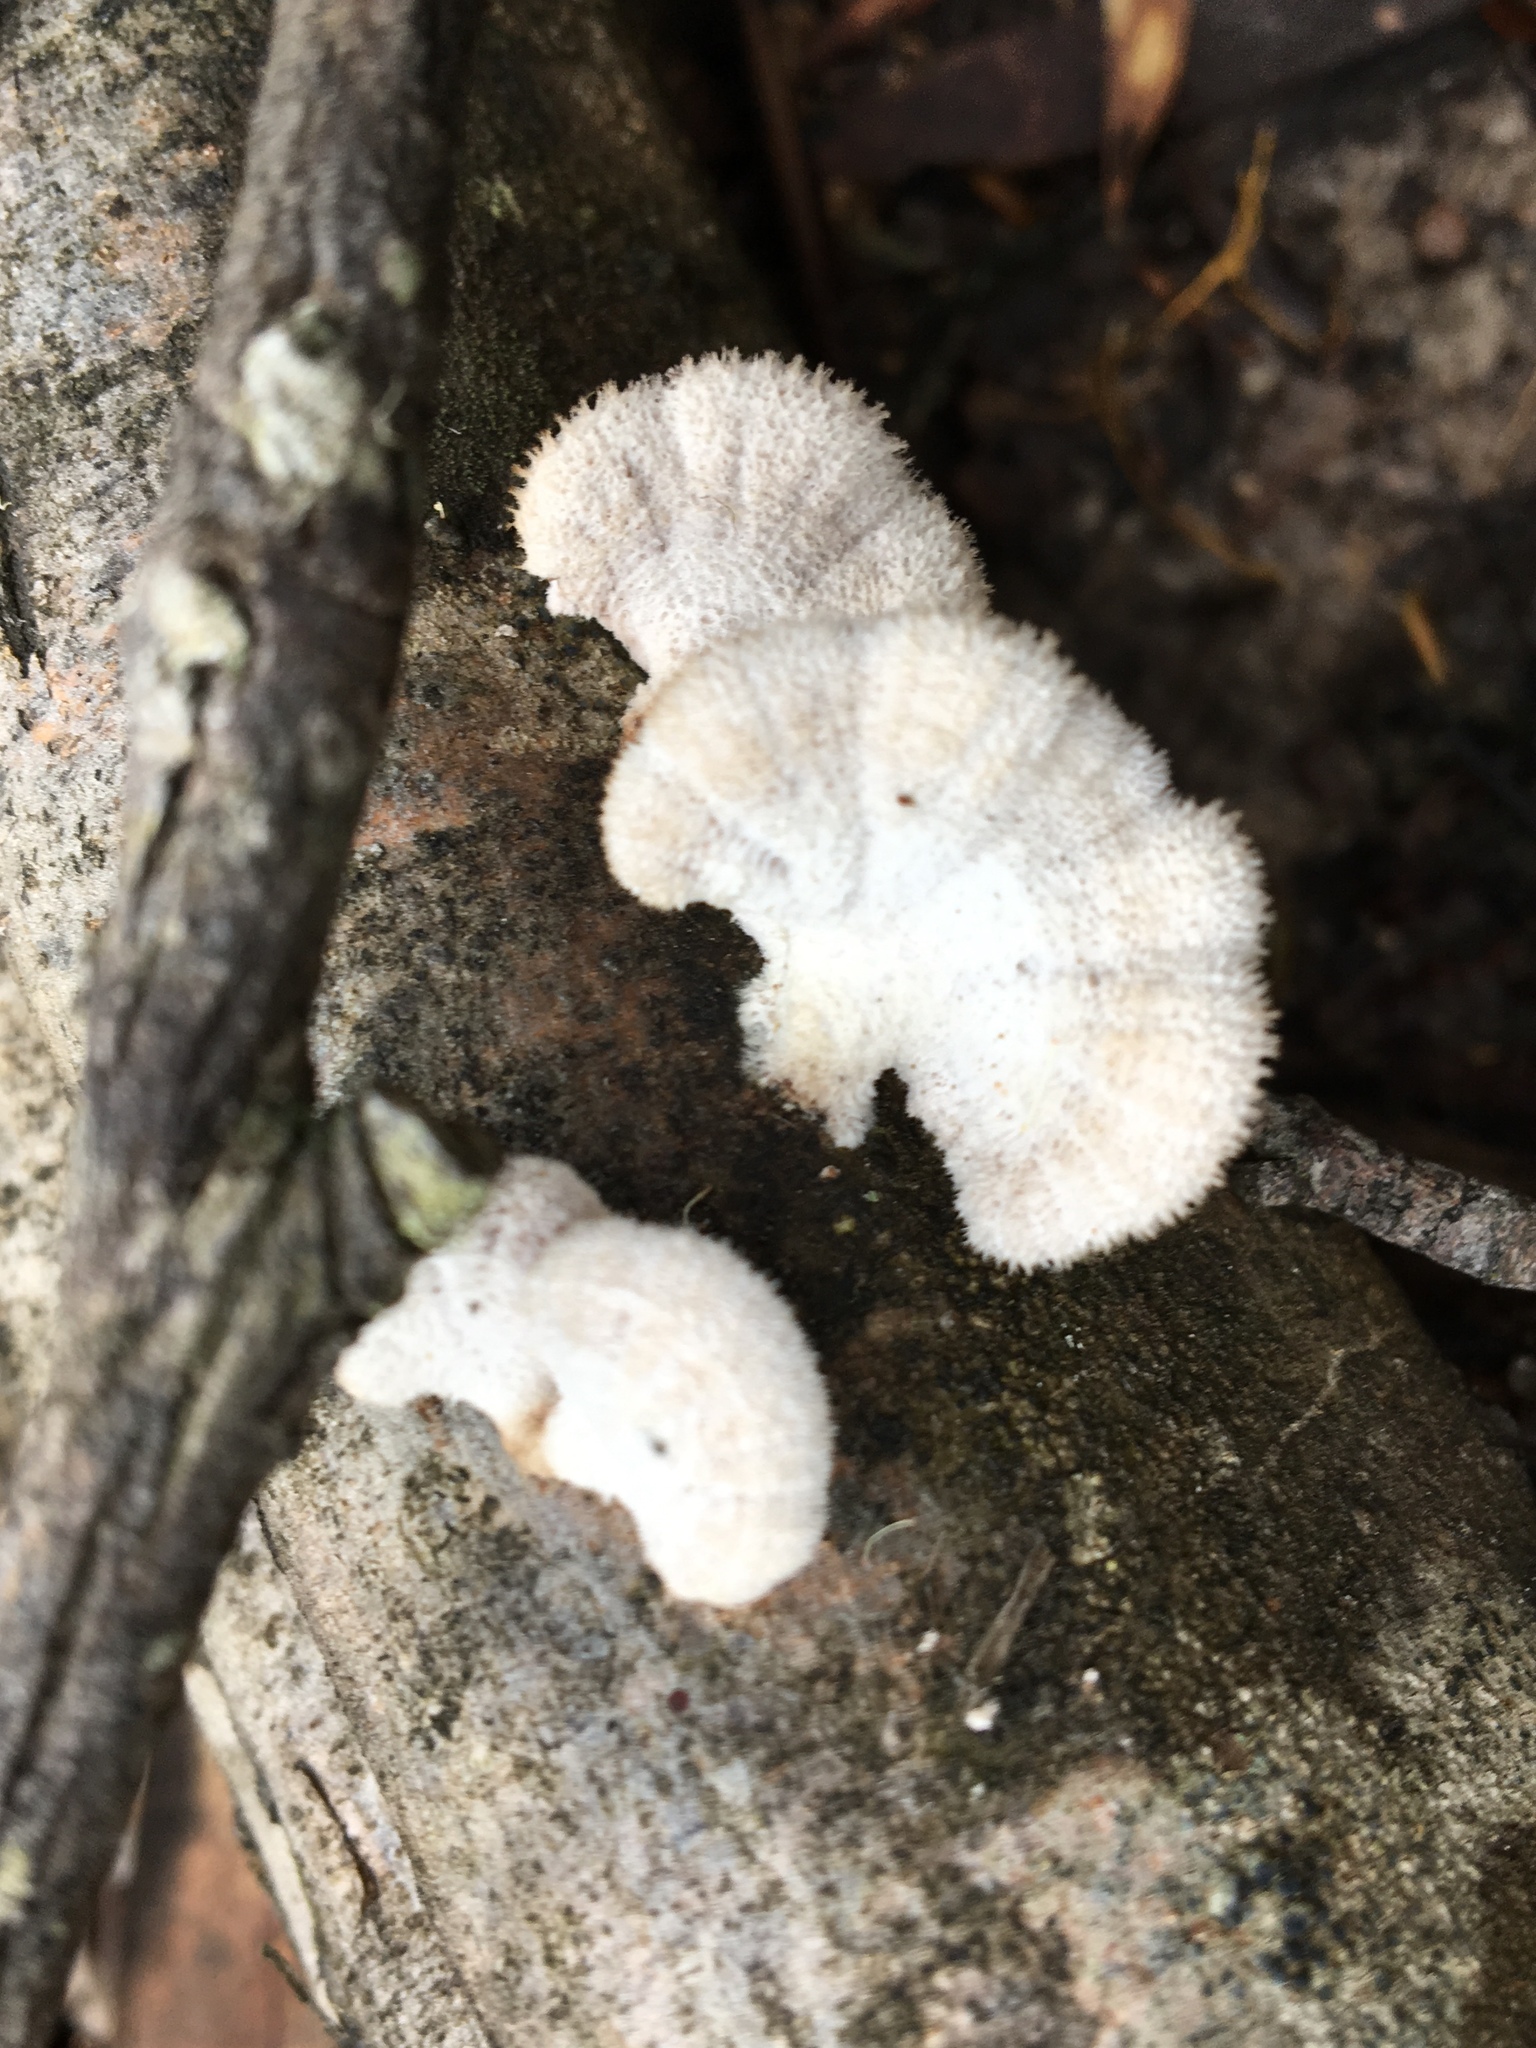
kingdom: Fungi
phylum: Basidiomycota
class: Agaricomycetes
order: Agaricales
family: Schizophyllaceae
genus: Schizophyllum
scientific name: Schizophyllum commune
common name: Common porecrust
